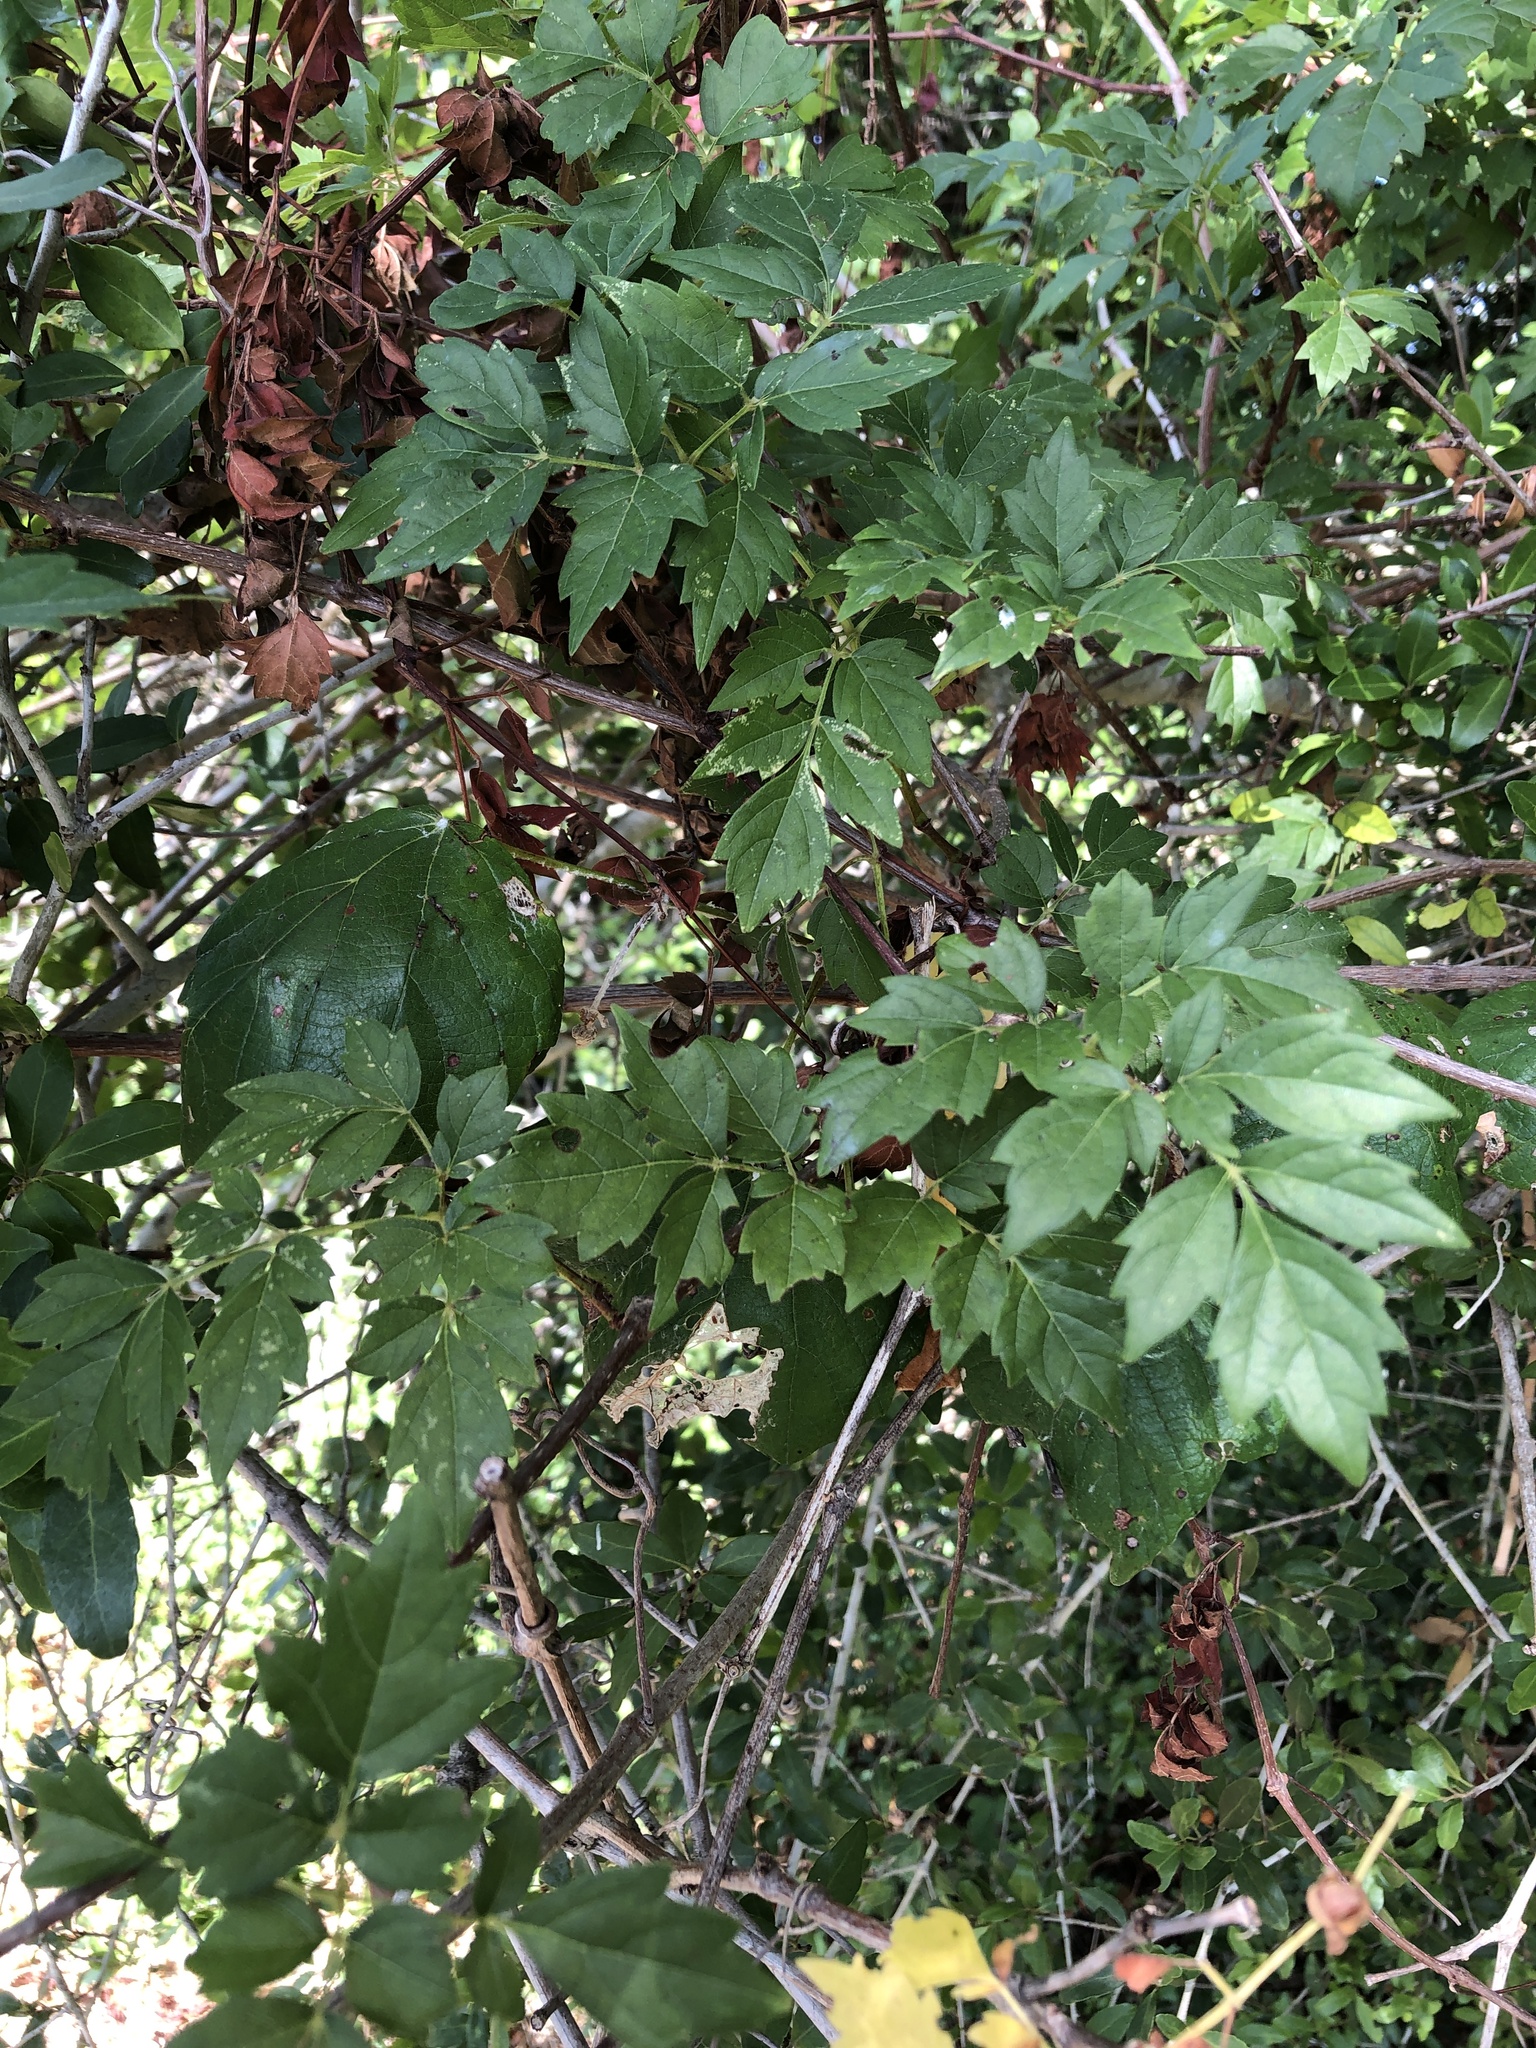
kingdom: Plantae
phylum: Tracheophyta
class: Magnoliopsida
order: Vitales
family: Vitaceae
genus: Nekemias
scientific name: Nekemias arborea
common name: Peppervine
